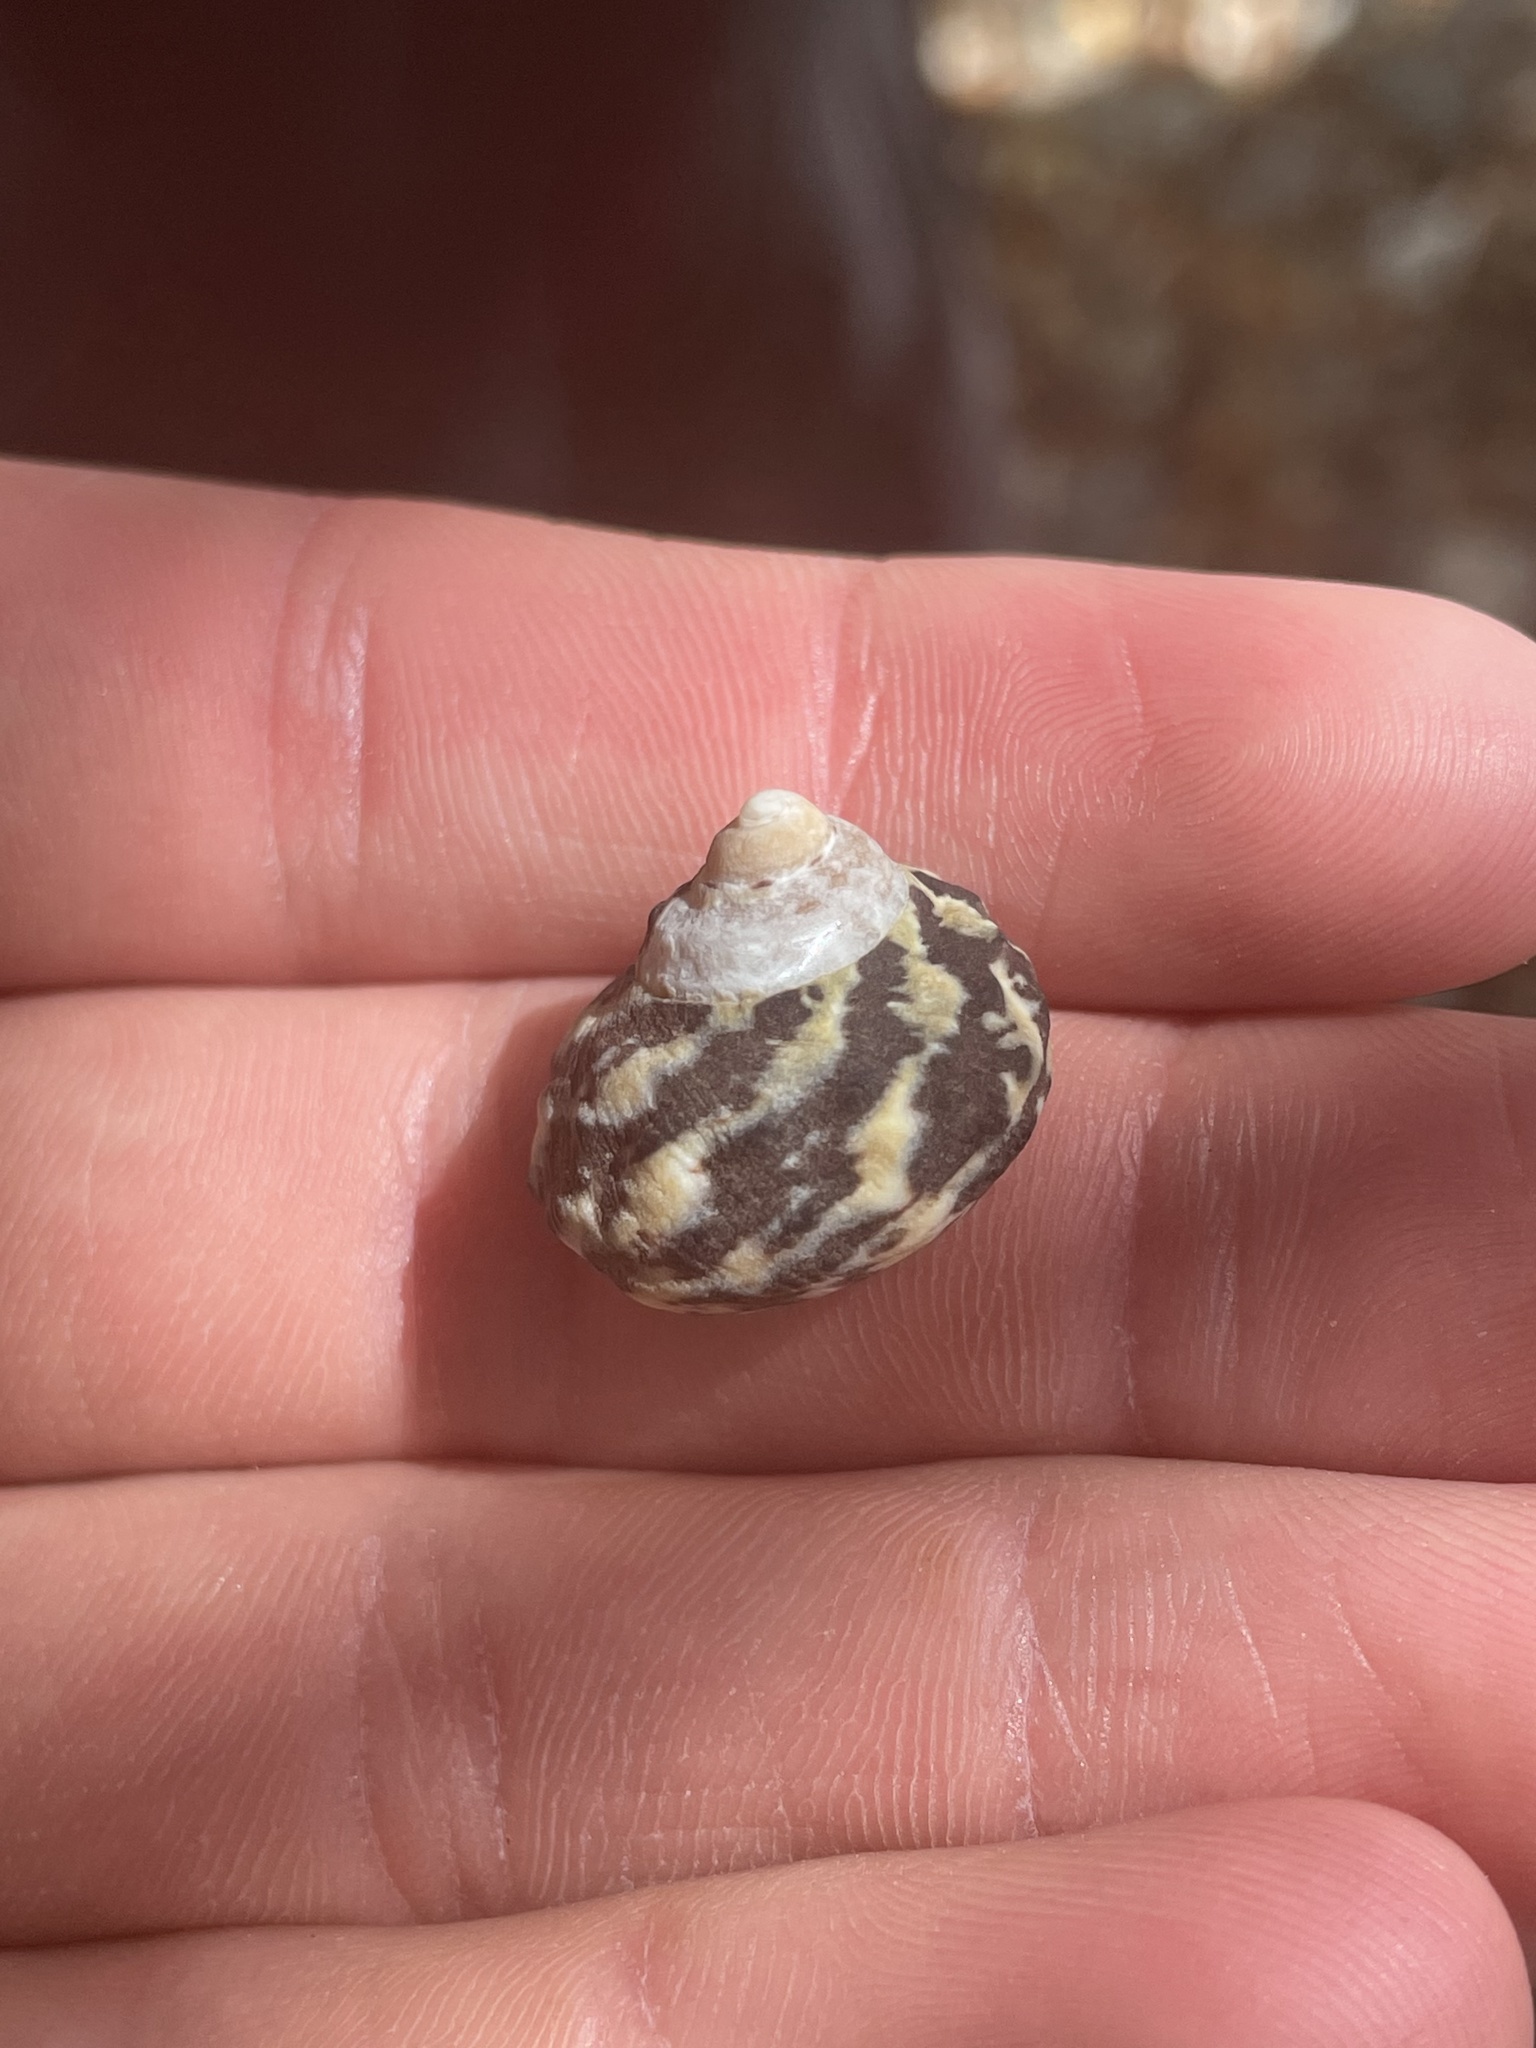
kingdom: Animalia
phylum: Mollusca
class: Gastropoda
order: Trochida
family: Tegulidae
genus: Cittarium
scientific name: Cittarium pica
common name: West indian topshell
